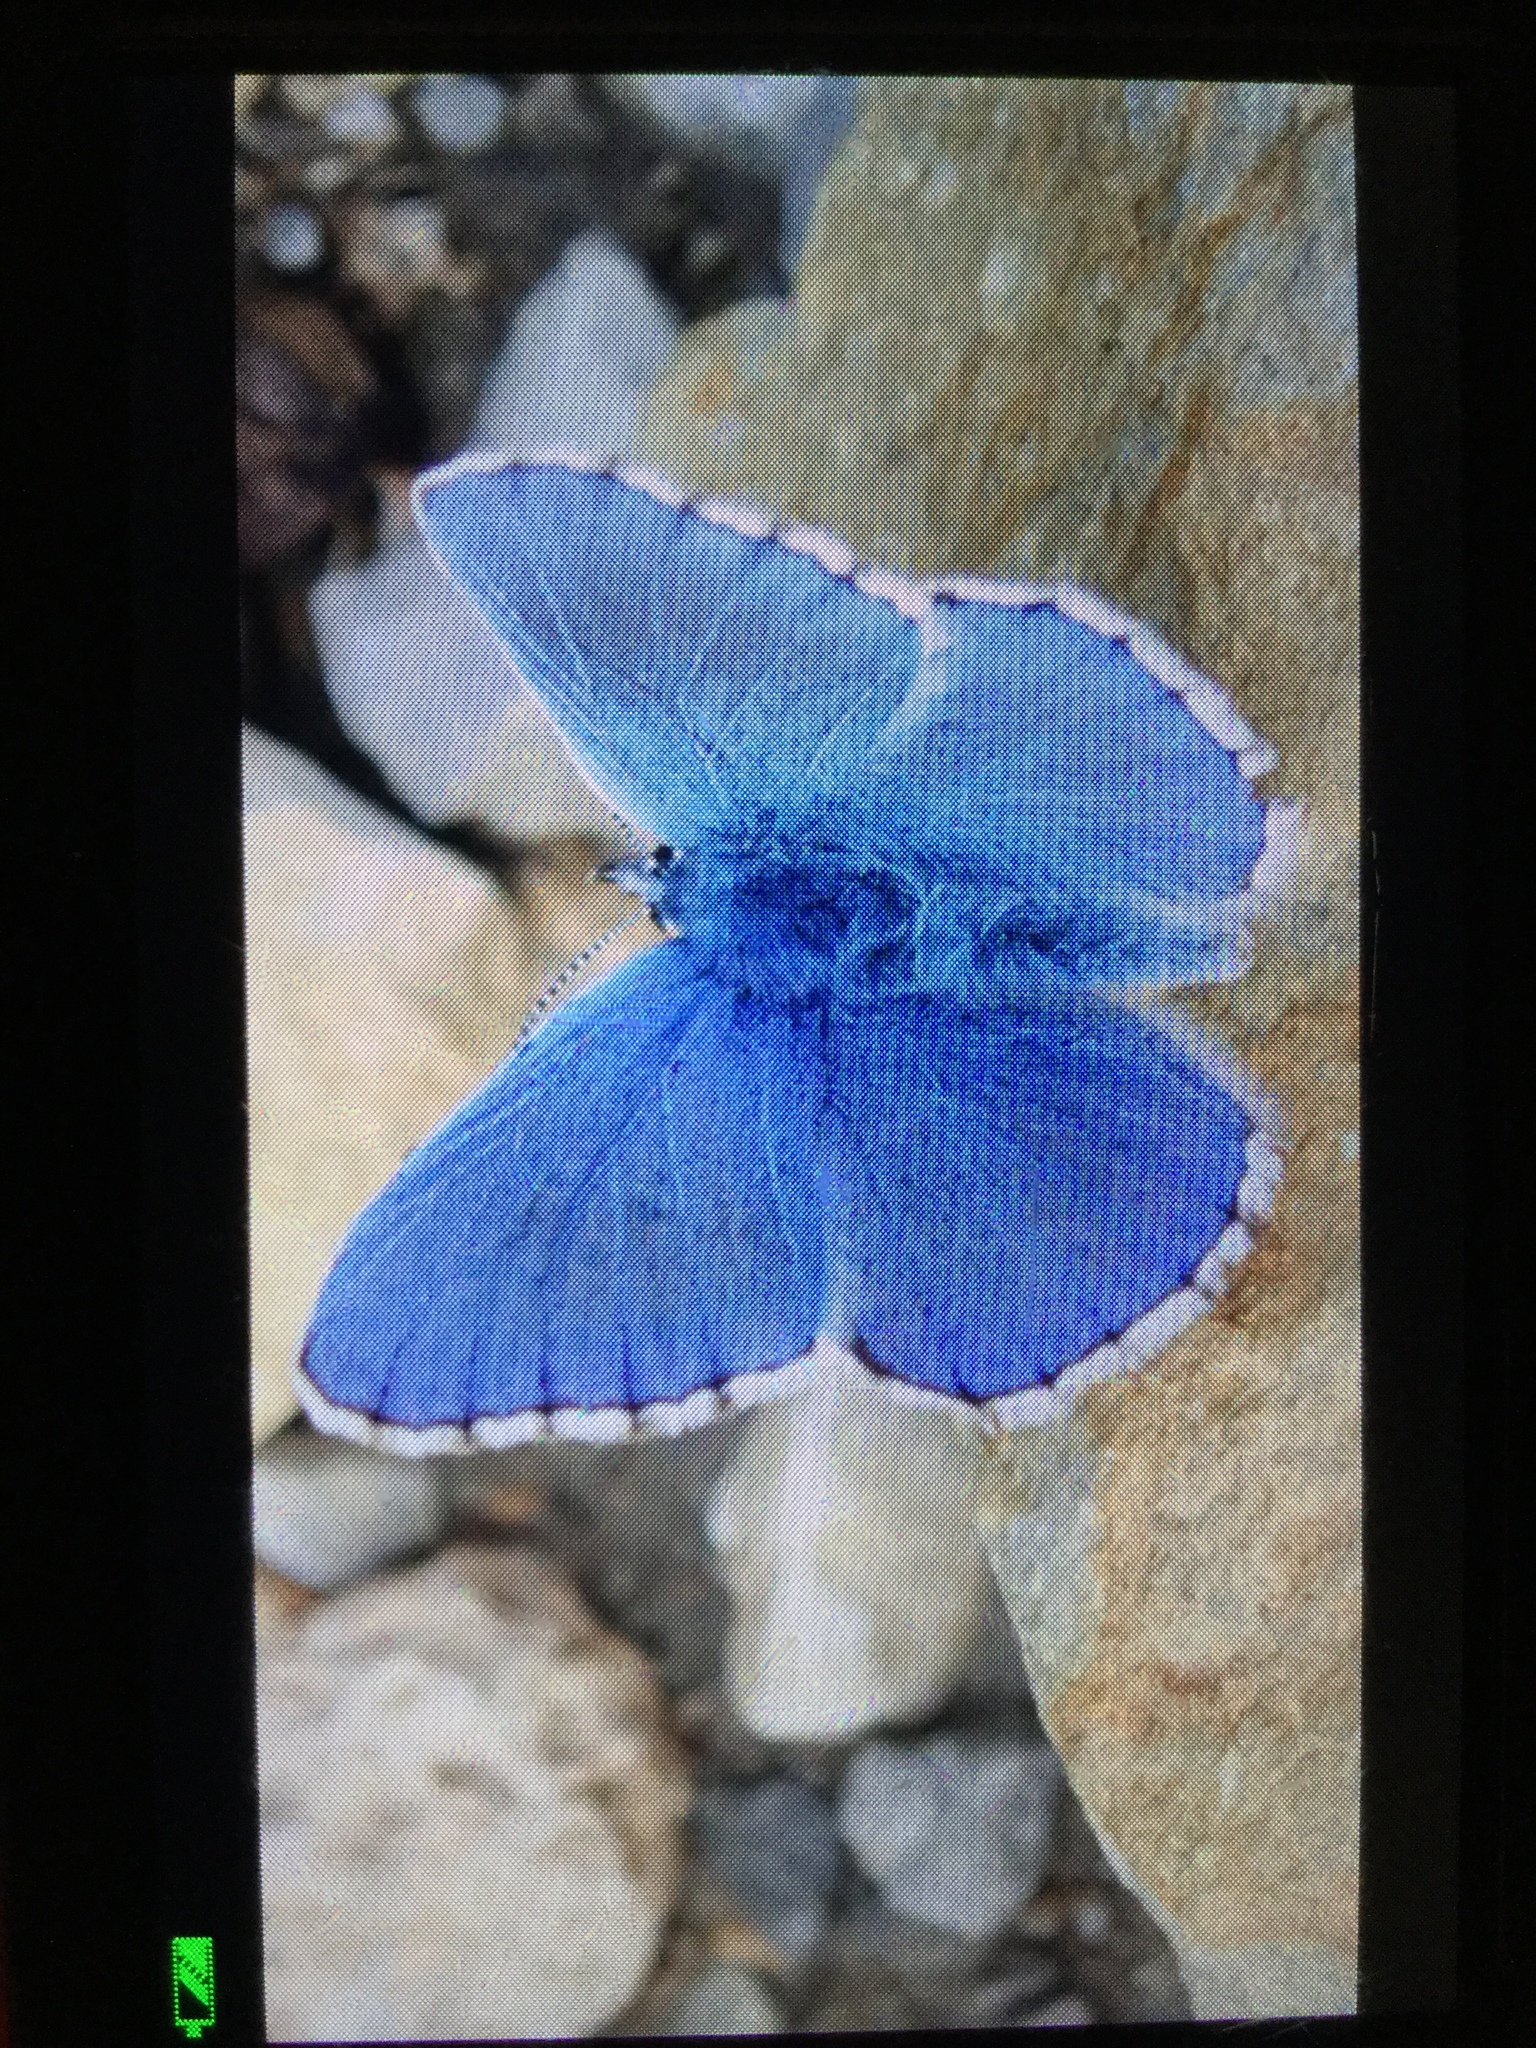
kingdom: Animalia
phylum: Arthropoda
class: Insecta
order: Lepidoptera
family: Lycaenidae
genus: Lysandra
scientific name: Lysandra bellargus
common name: Adonis blue
